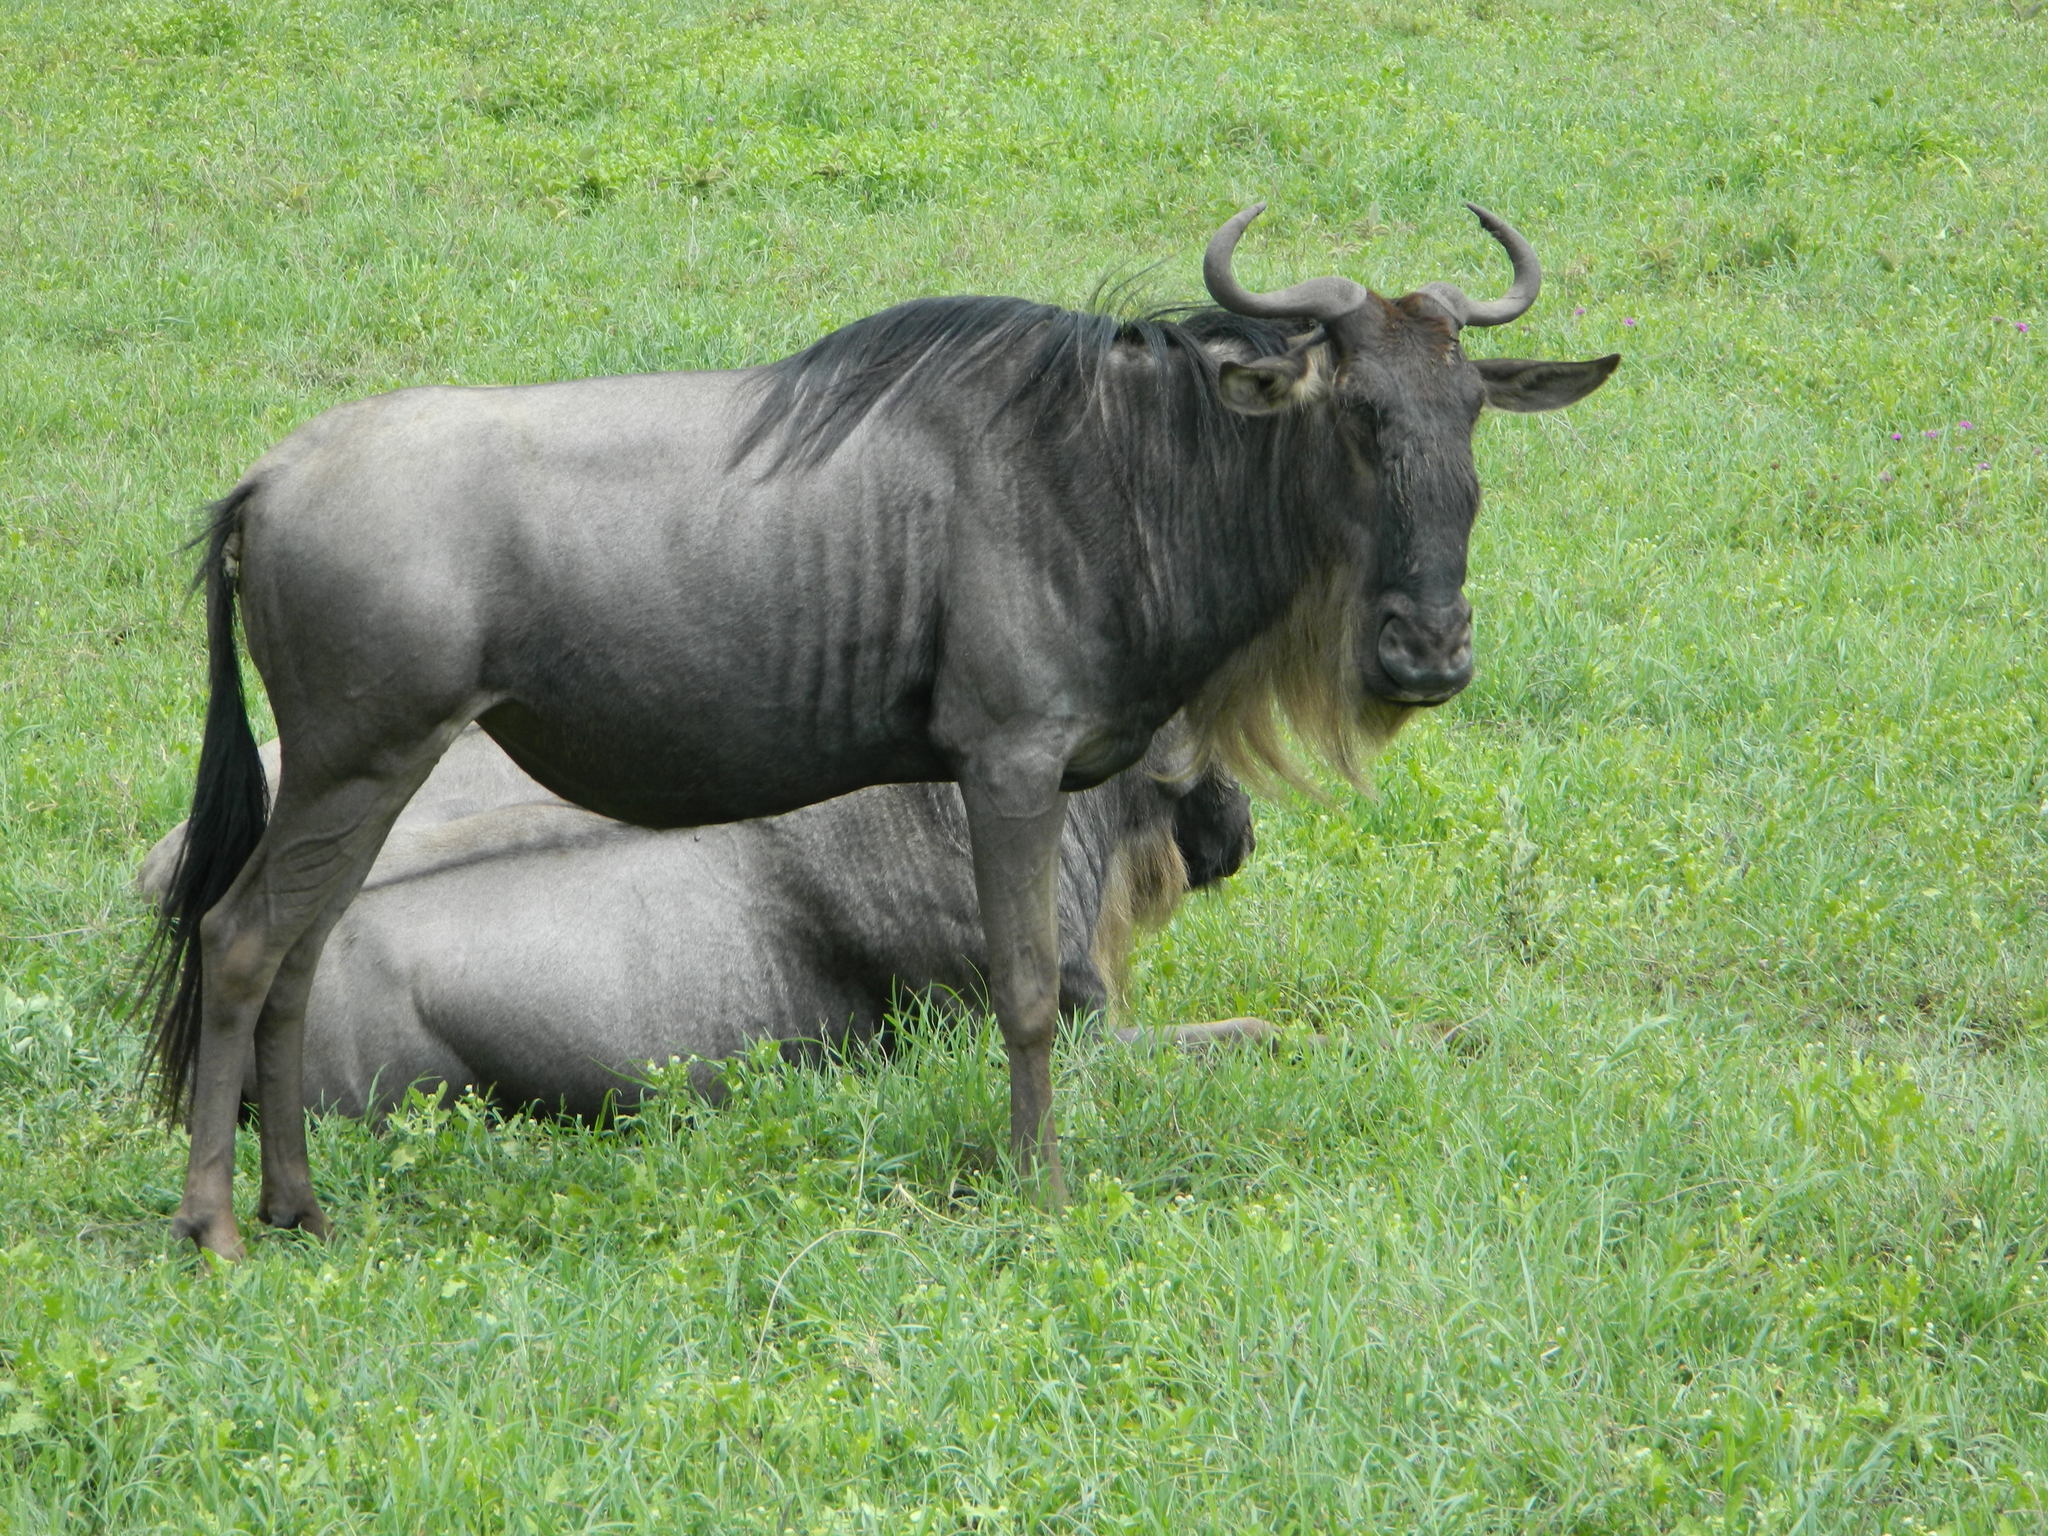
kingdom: Animalia
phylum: Chordata
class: Mammalia
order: Artiodactyla
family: Bovidae
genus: Connochaetes
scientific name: Connochaetes taurinus
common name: Blue wildebeest
